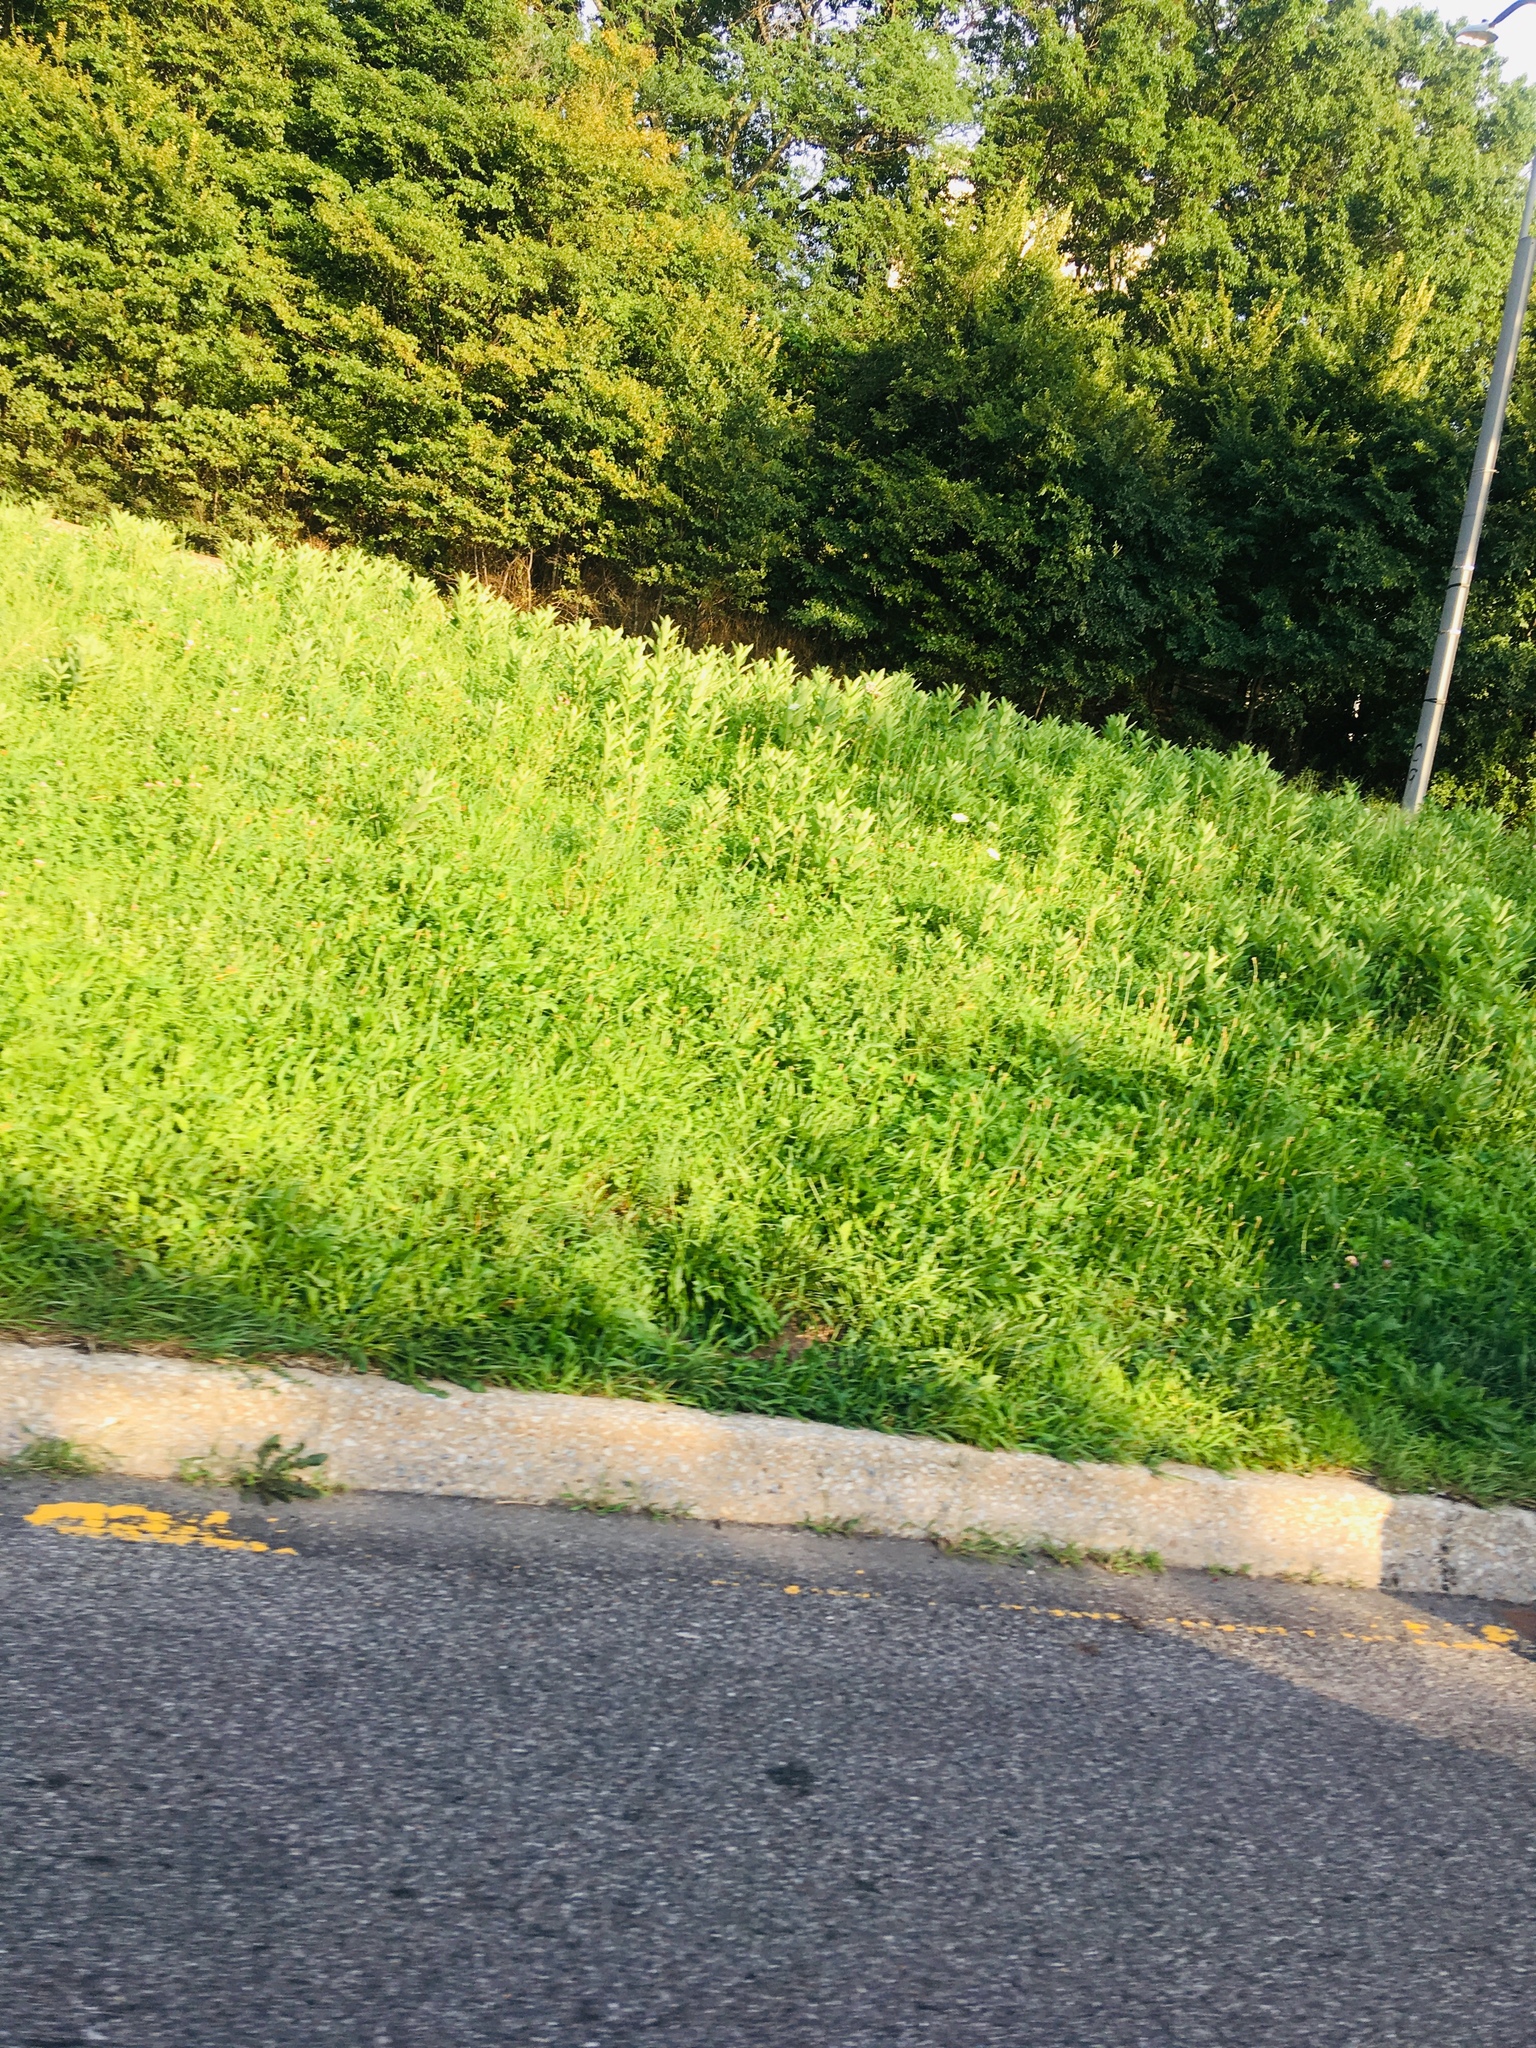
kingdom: Plantae
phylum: Tracheophyta
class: Magnoliopsida
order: Gentianales
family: Apocynaceae
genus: Asclepias
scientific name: Asclepias syriaca
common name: Common milkweed
